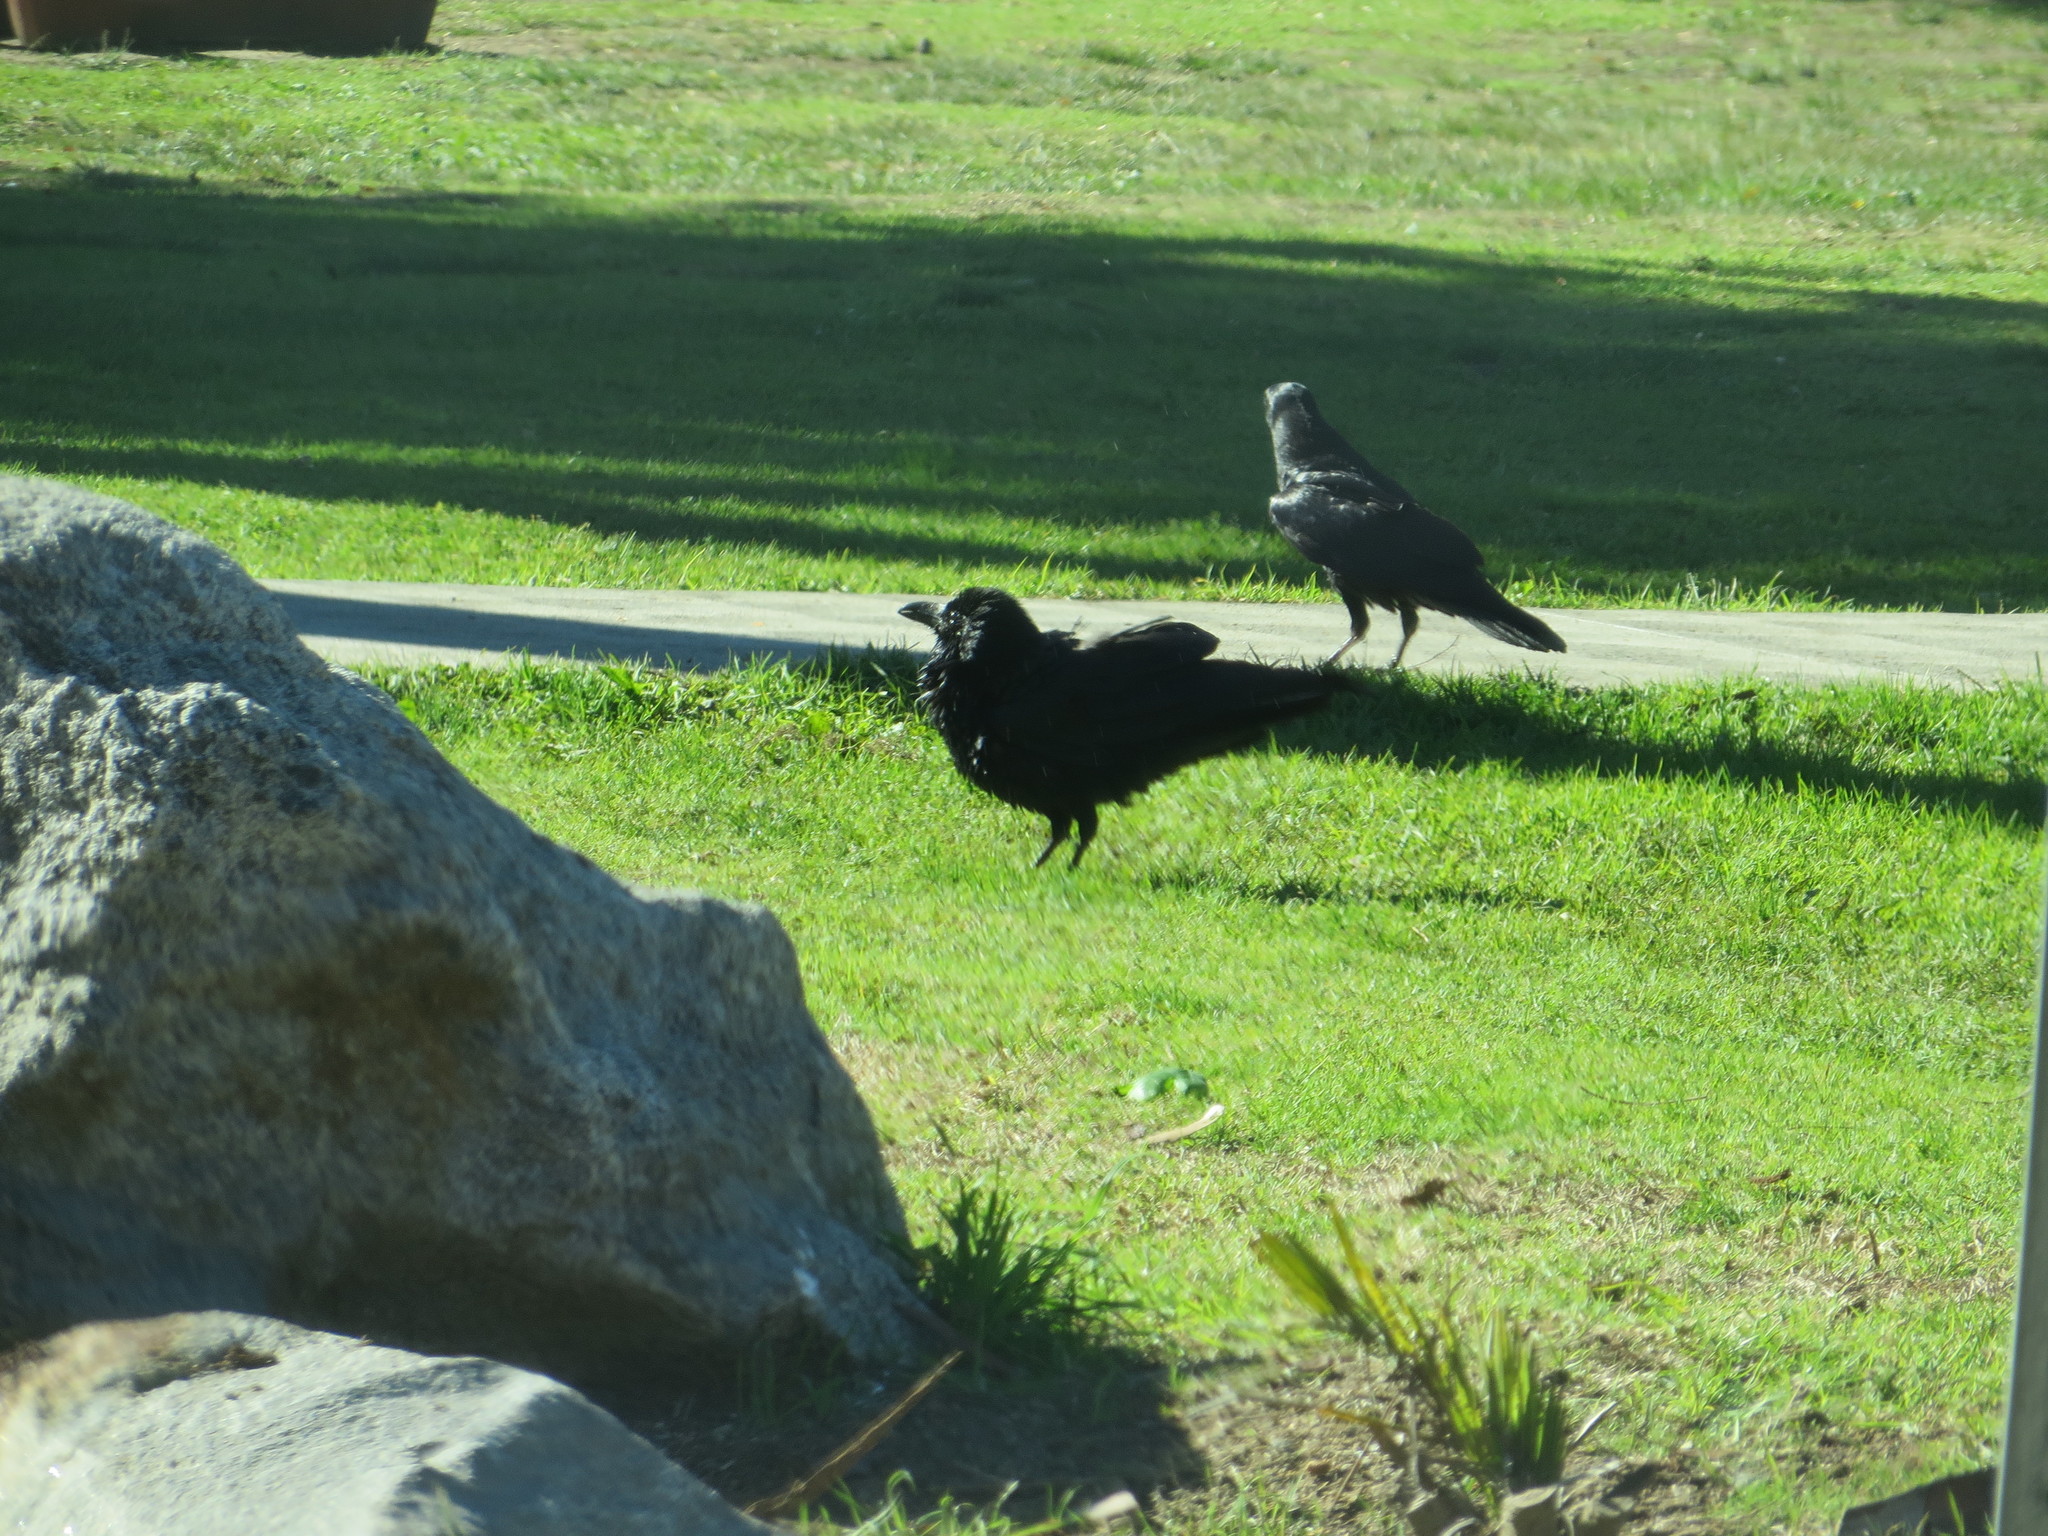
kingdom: Animalia
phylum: Chordata
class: Aves
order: Passeriformes
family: Corvidae
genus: Corvus
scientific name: Corvus corax
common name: Common raven
